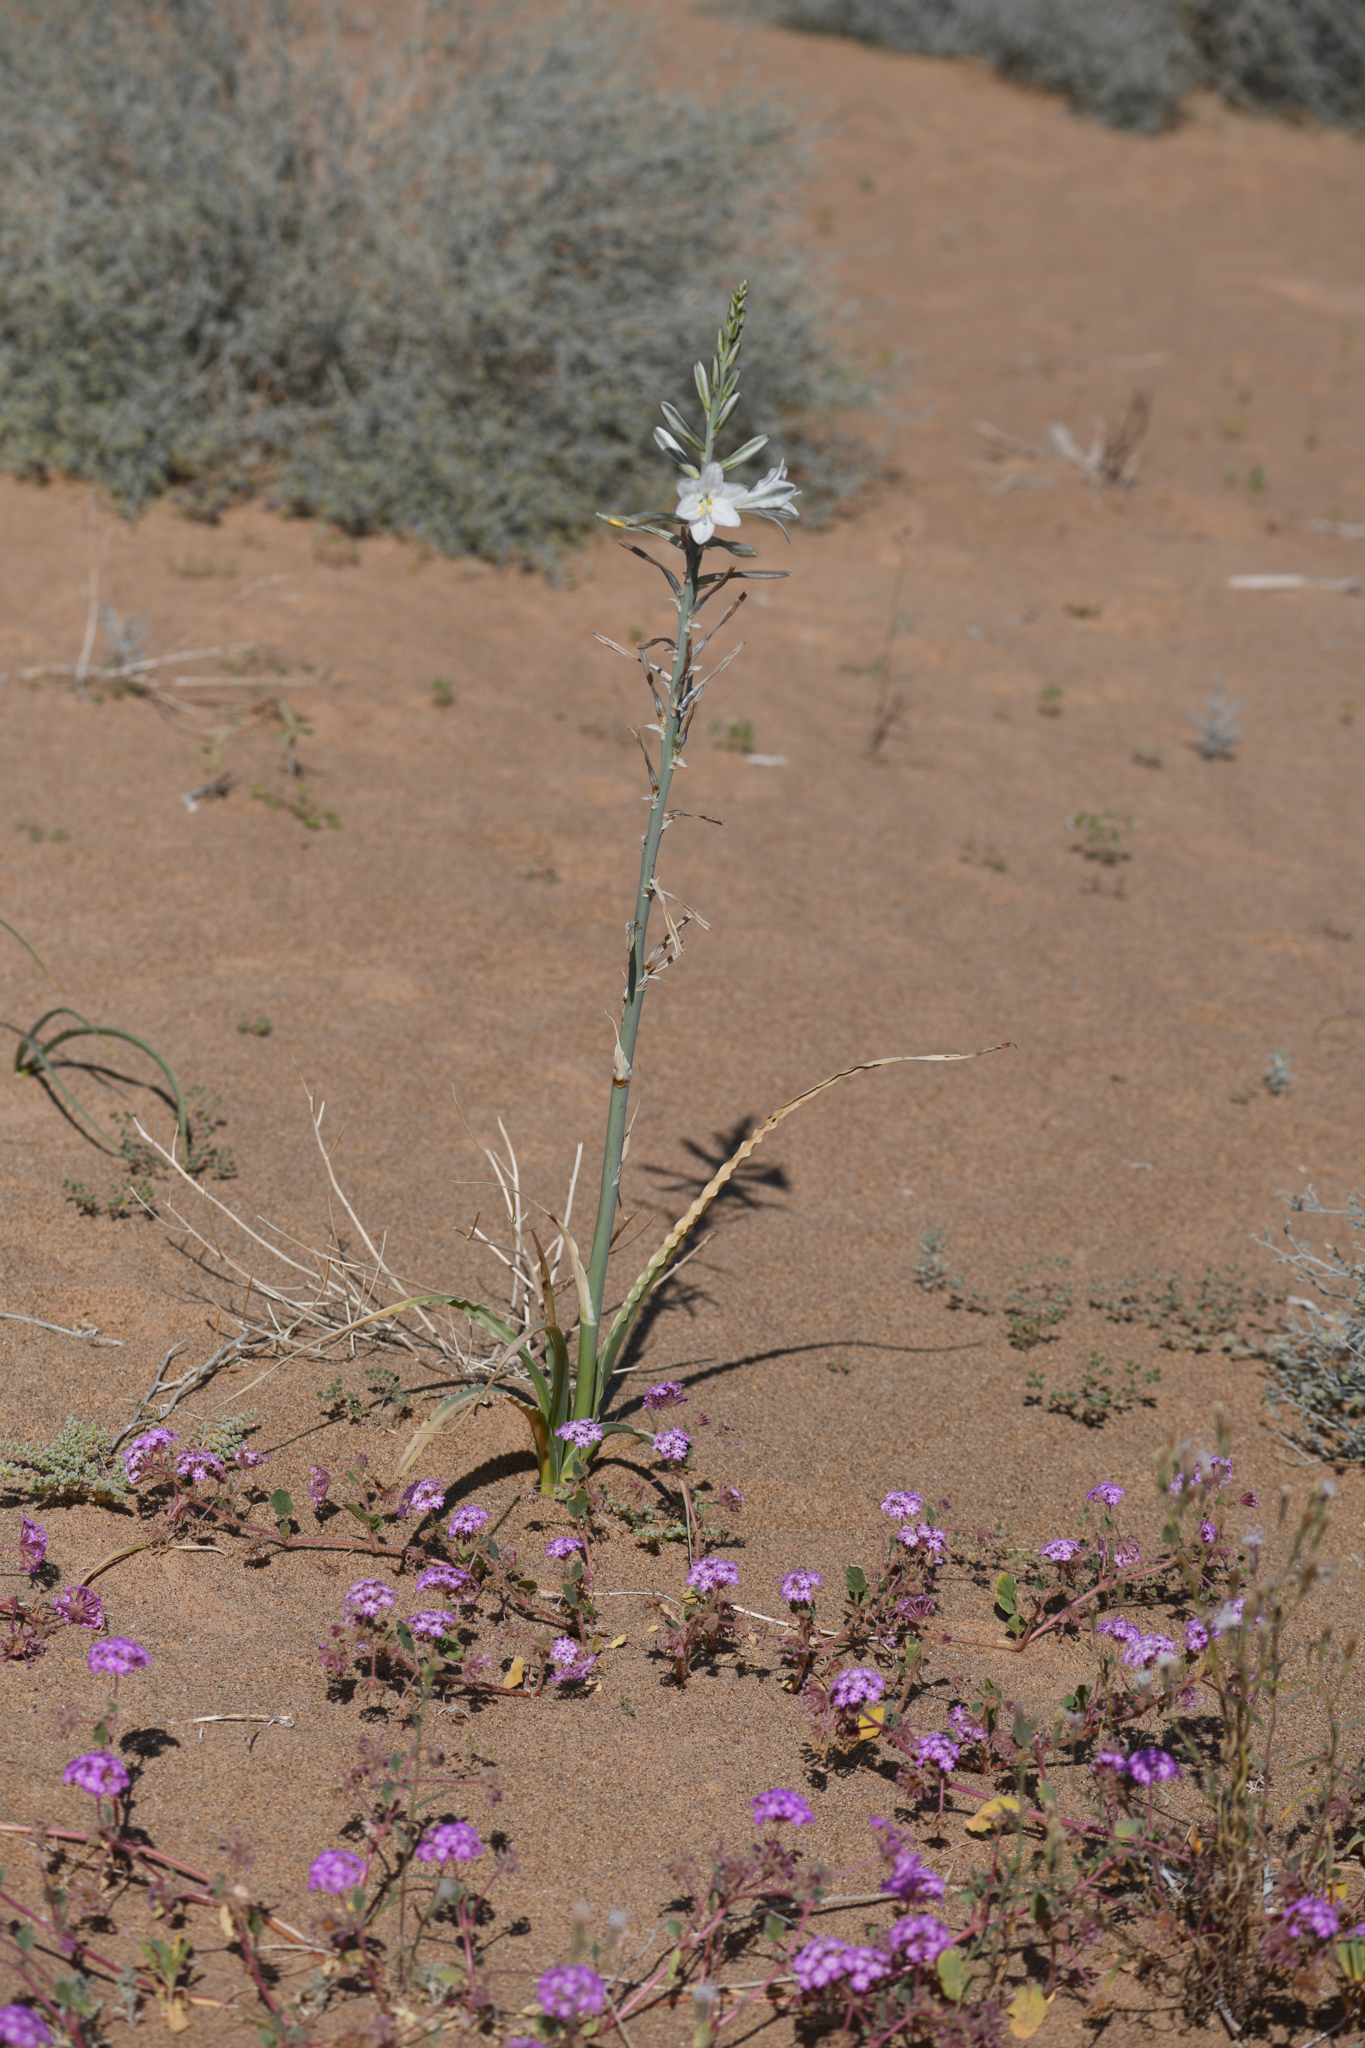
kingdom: Plantae
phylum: Tracheophyta
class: Liliopsida
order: Asparagales
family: Asparagaceae
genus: Hesperocallis
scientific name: Hesperocallis undulata
